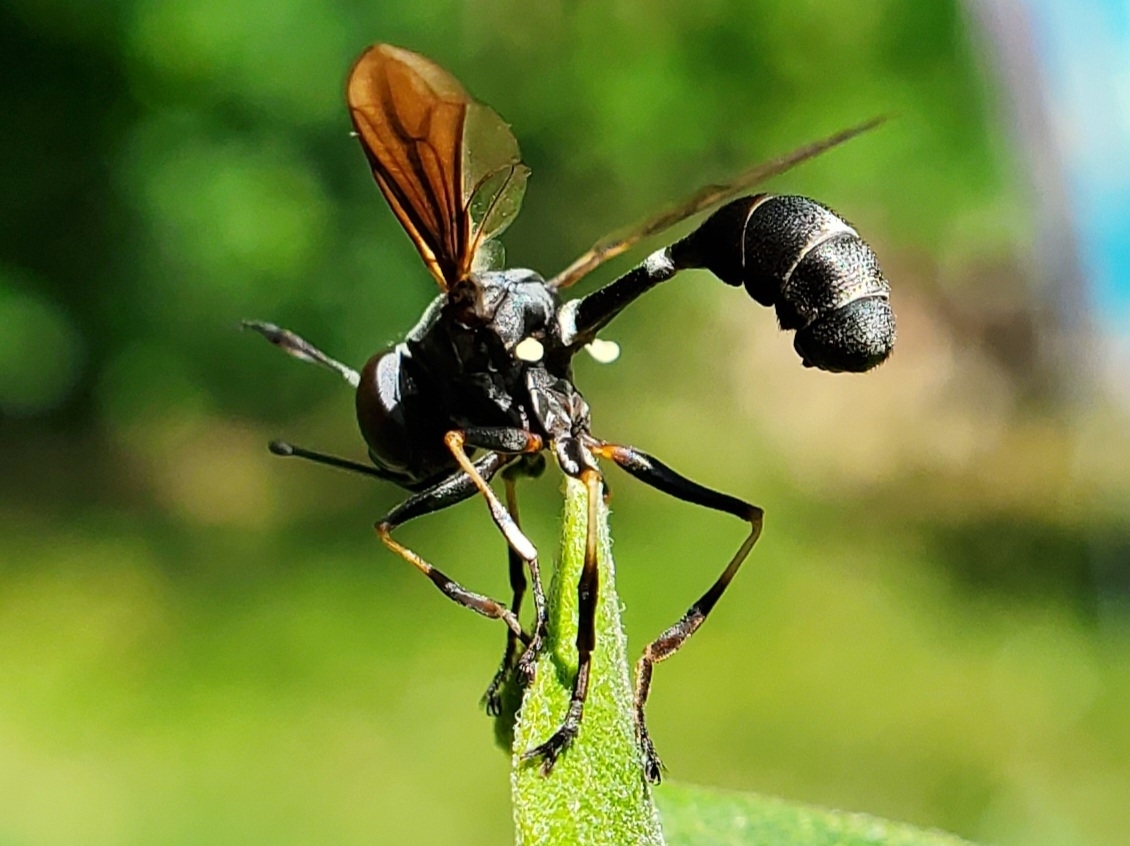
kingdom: Animalia
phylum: Arthropoda
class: Insecta
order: Diptera
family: Conopidae
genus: Physocephala
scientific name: Physocephala tibialis
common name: Common eastern physocephala
